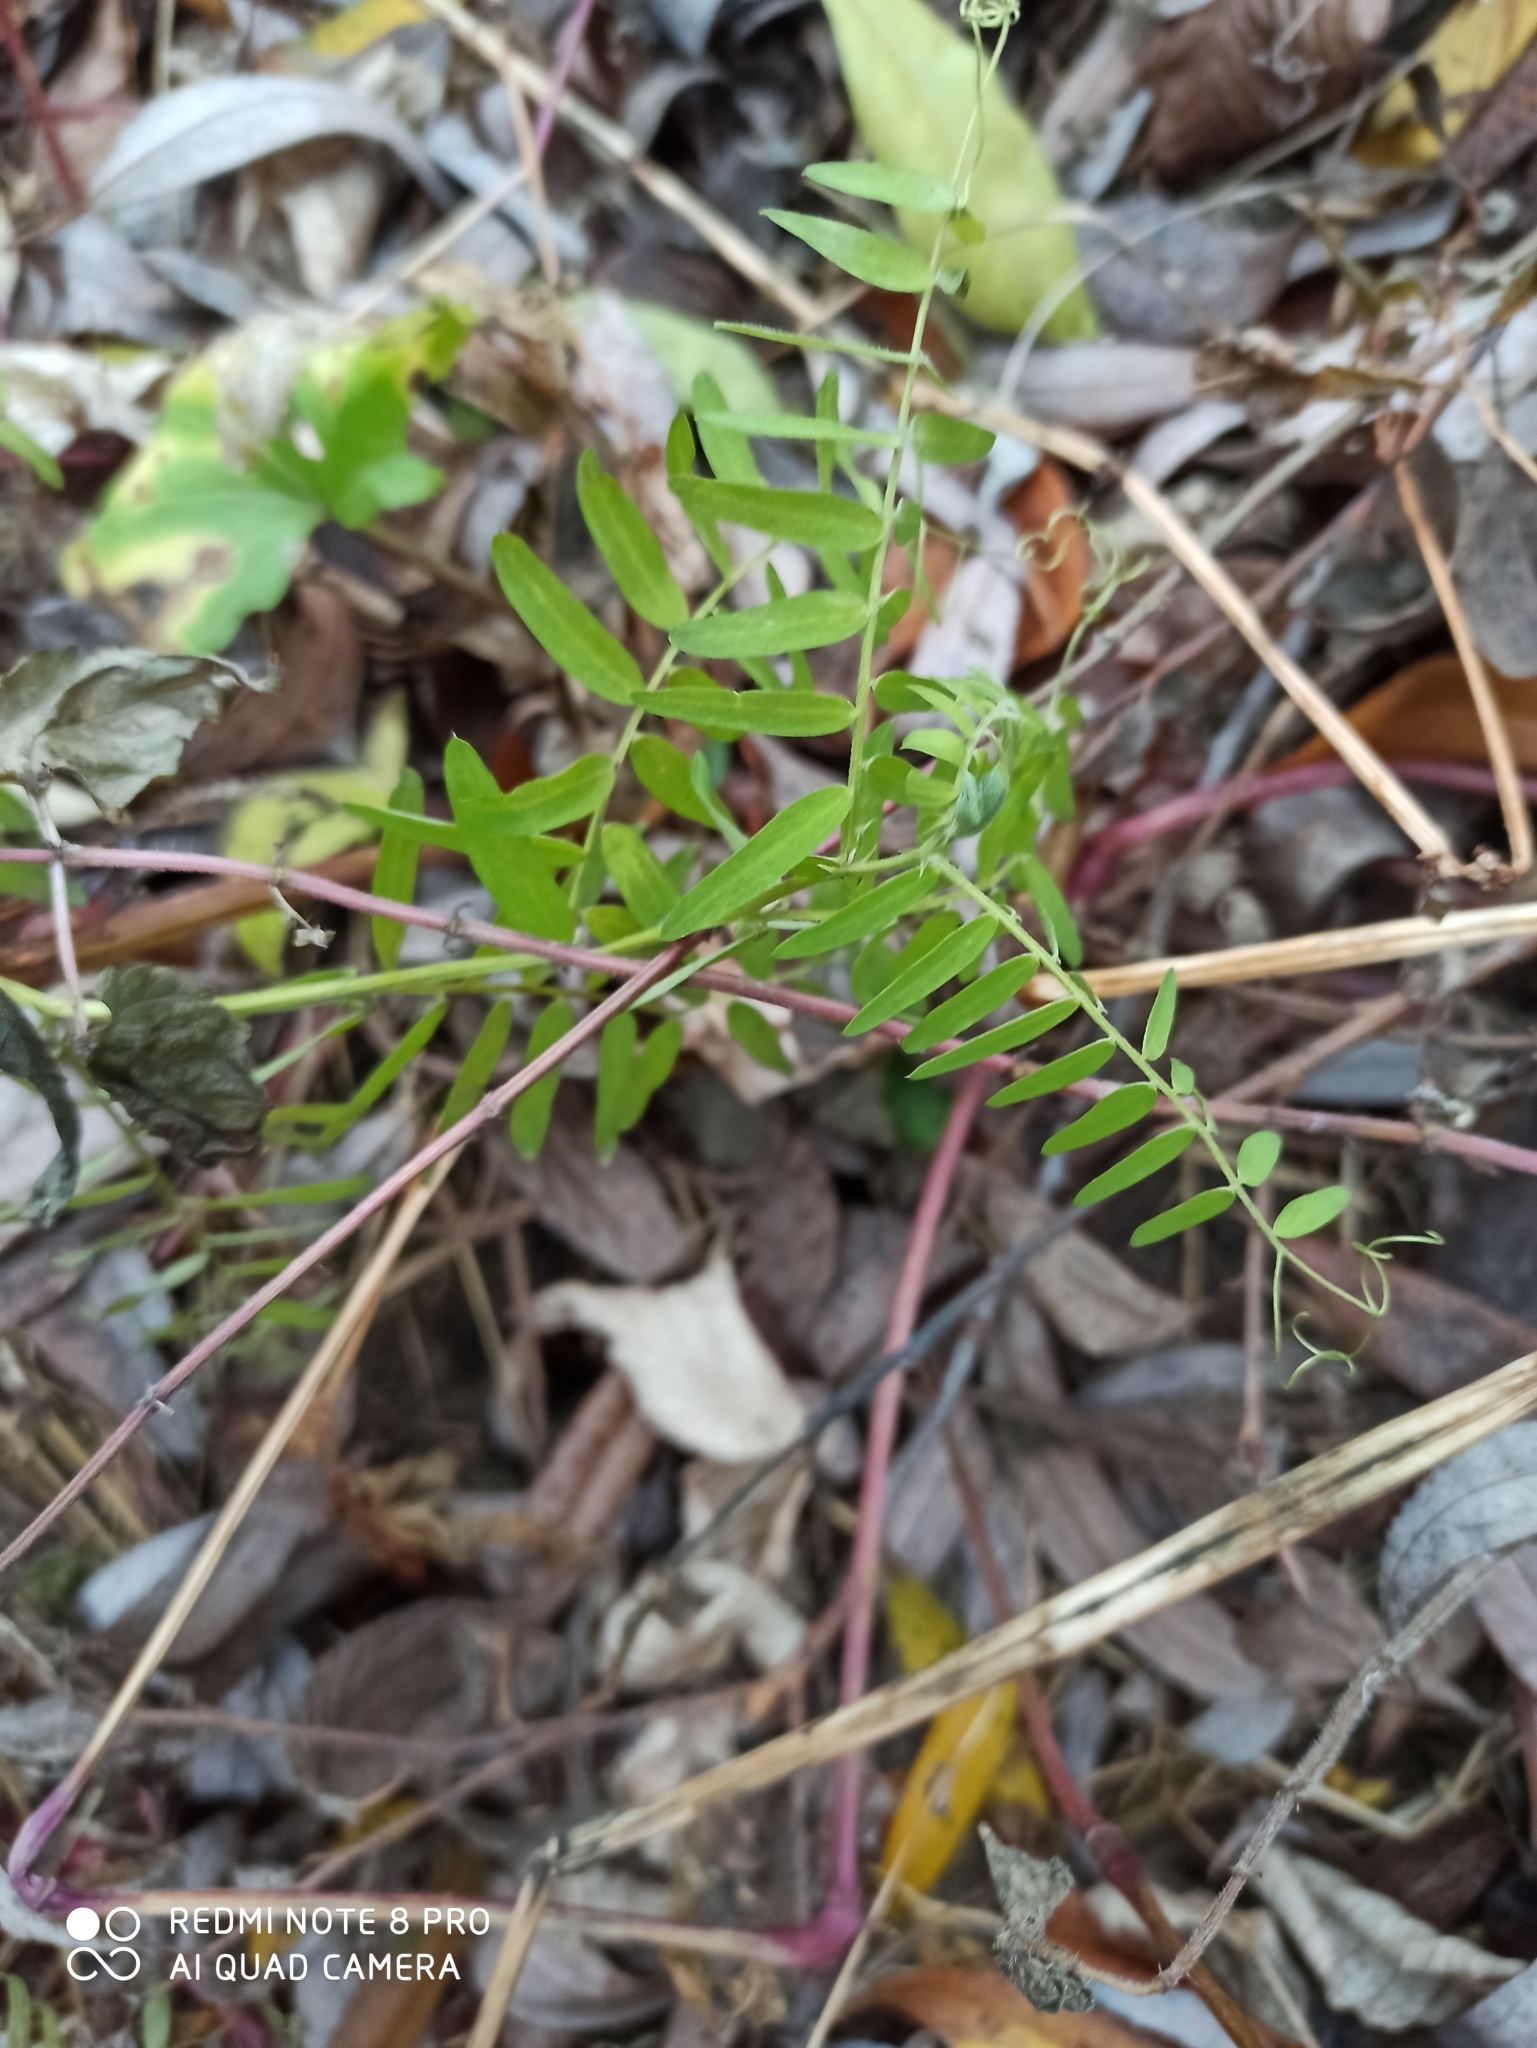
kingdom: Plantae
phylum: Tracheophyta
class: Magnoliopsida
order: Fabales
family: Fabaceae
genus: Vicia
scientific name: Vicia cracca
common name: Bird vetch
